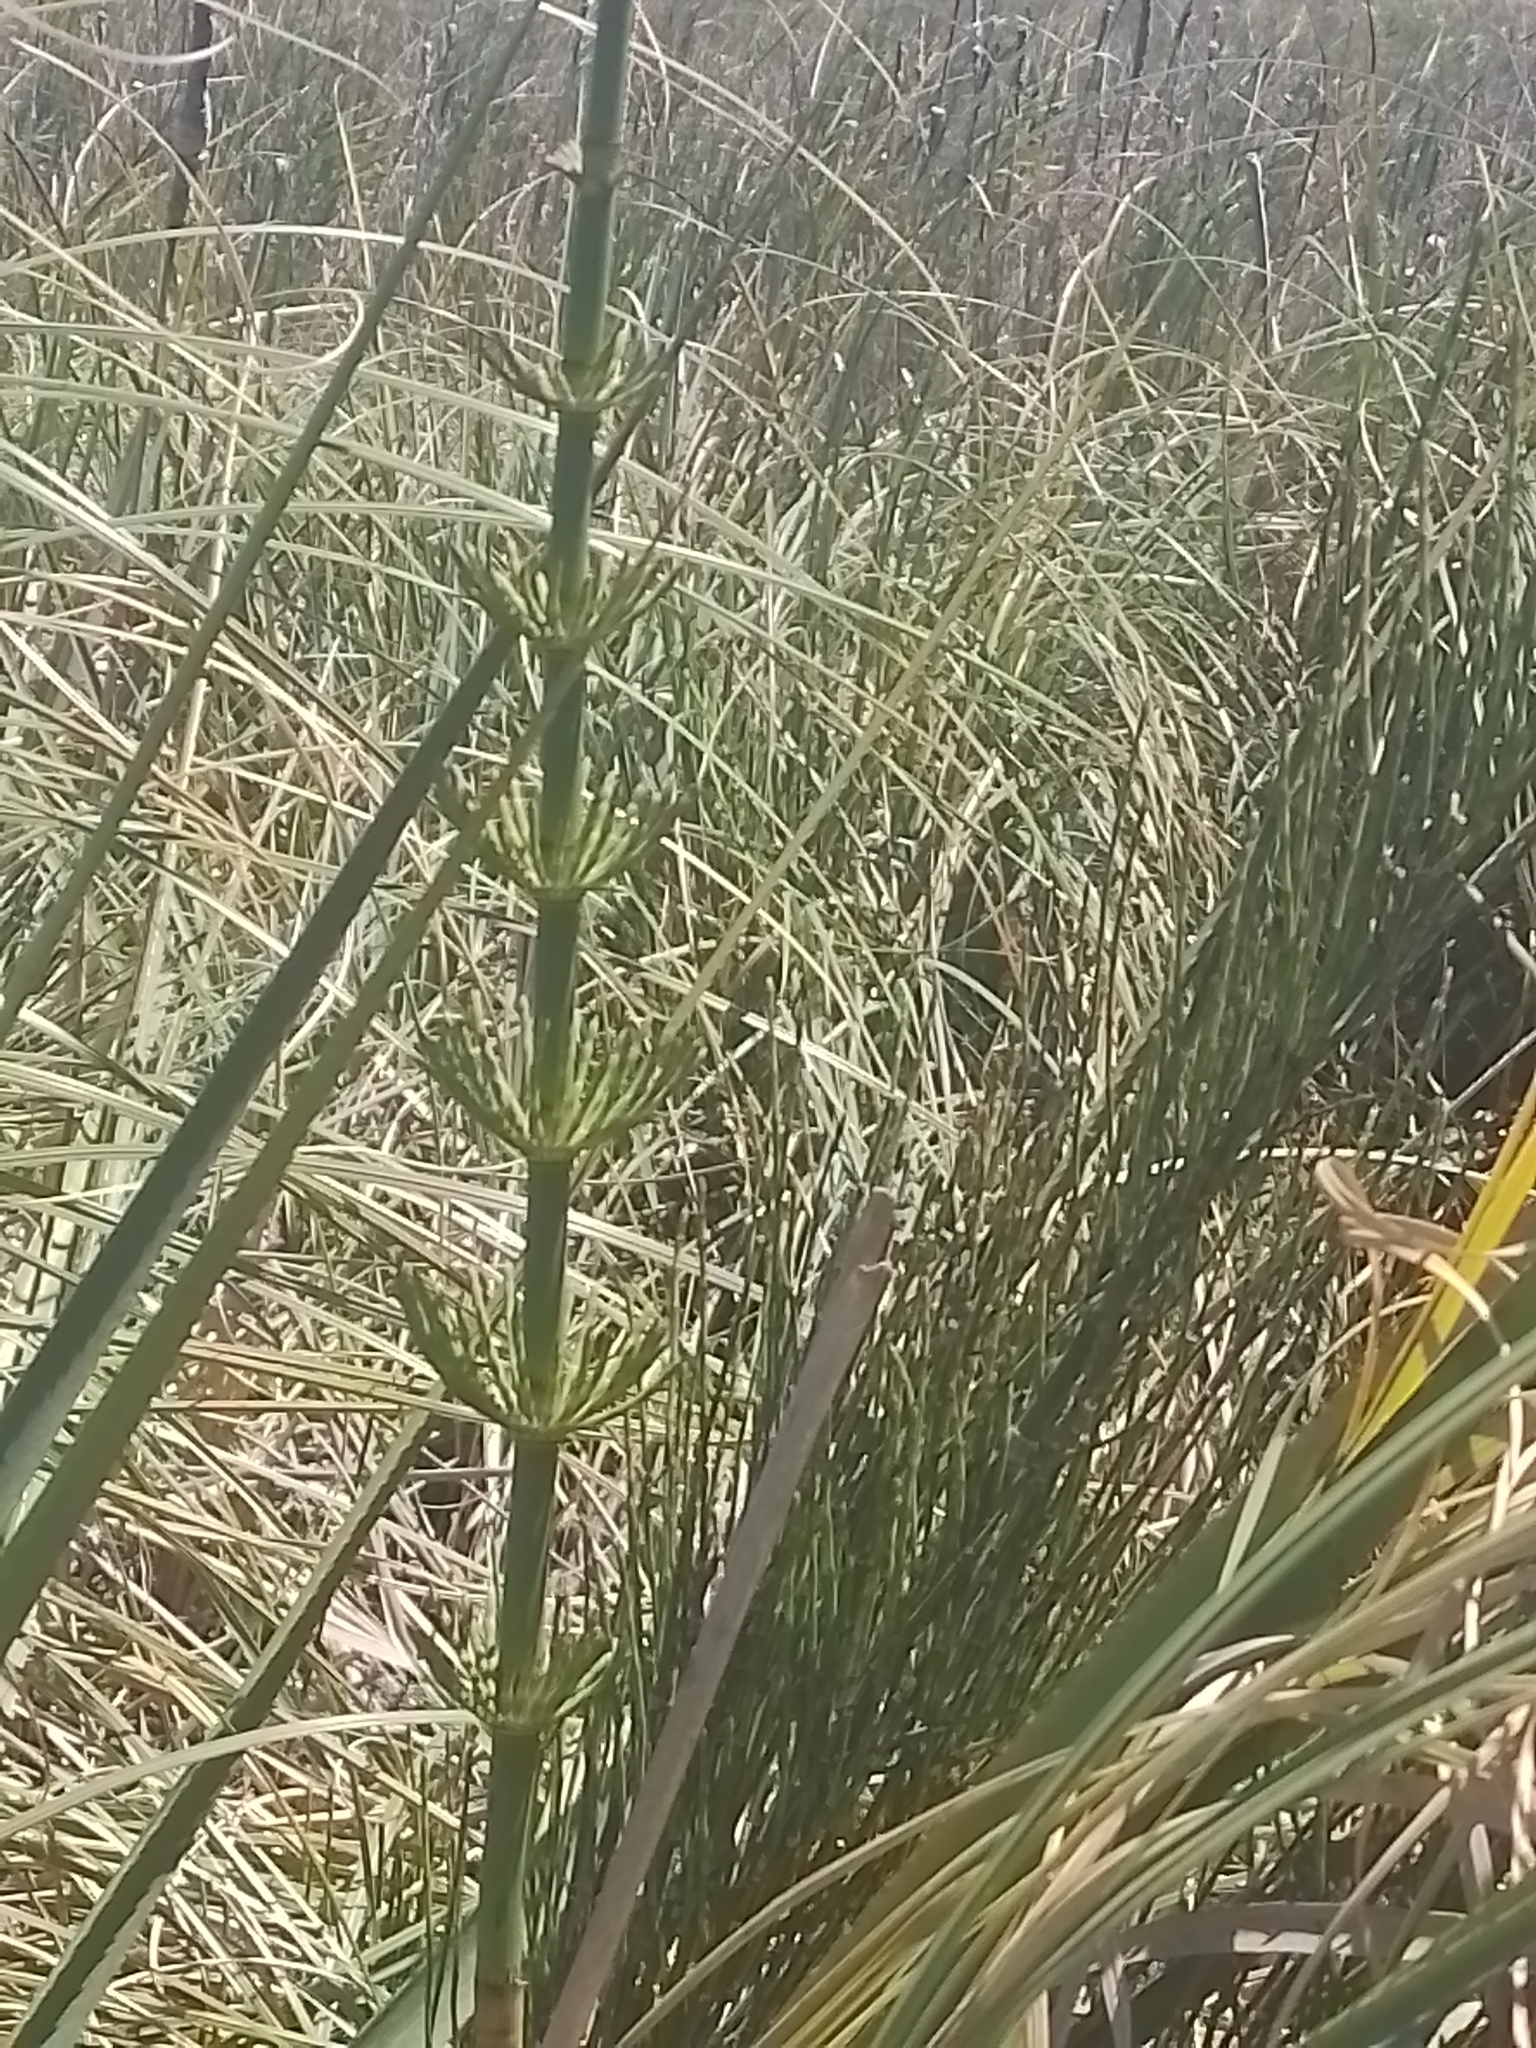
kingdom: Plantae
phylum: Tracheophyta
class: Polypodiopsida
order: Equisetales
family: Equisetaceae
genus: Equisetum
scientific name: Equisetum giganteum
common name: Giant horsetail
